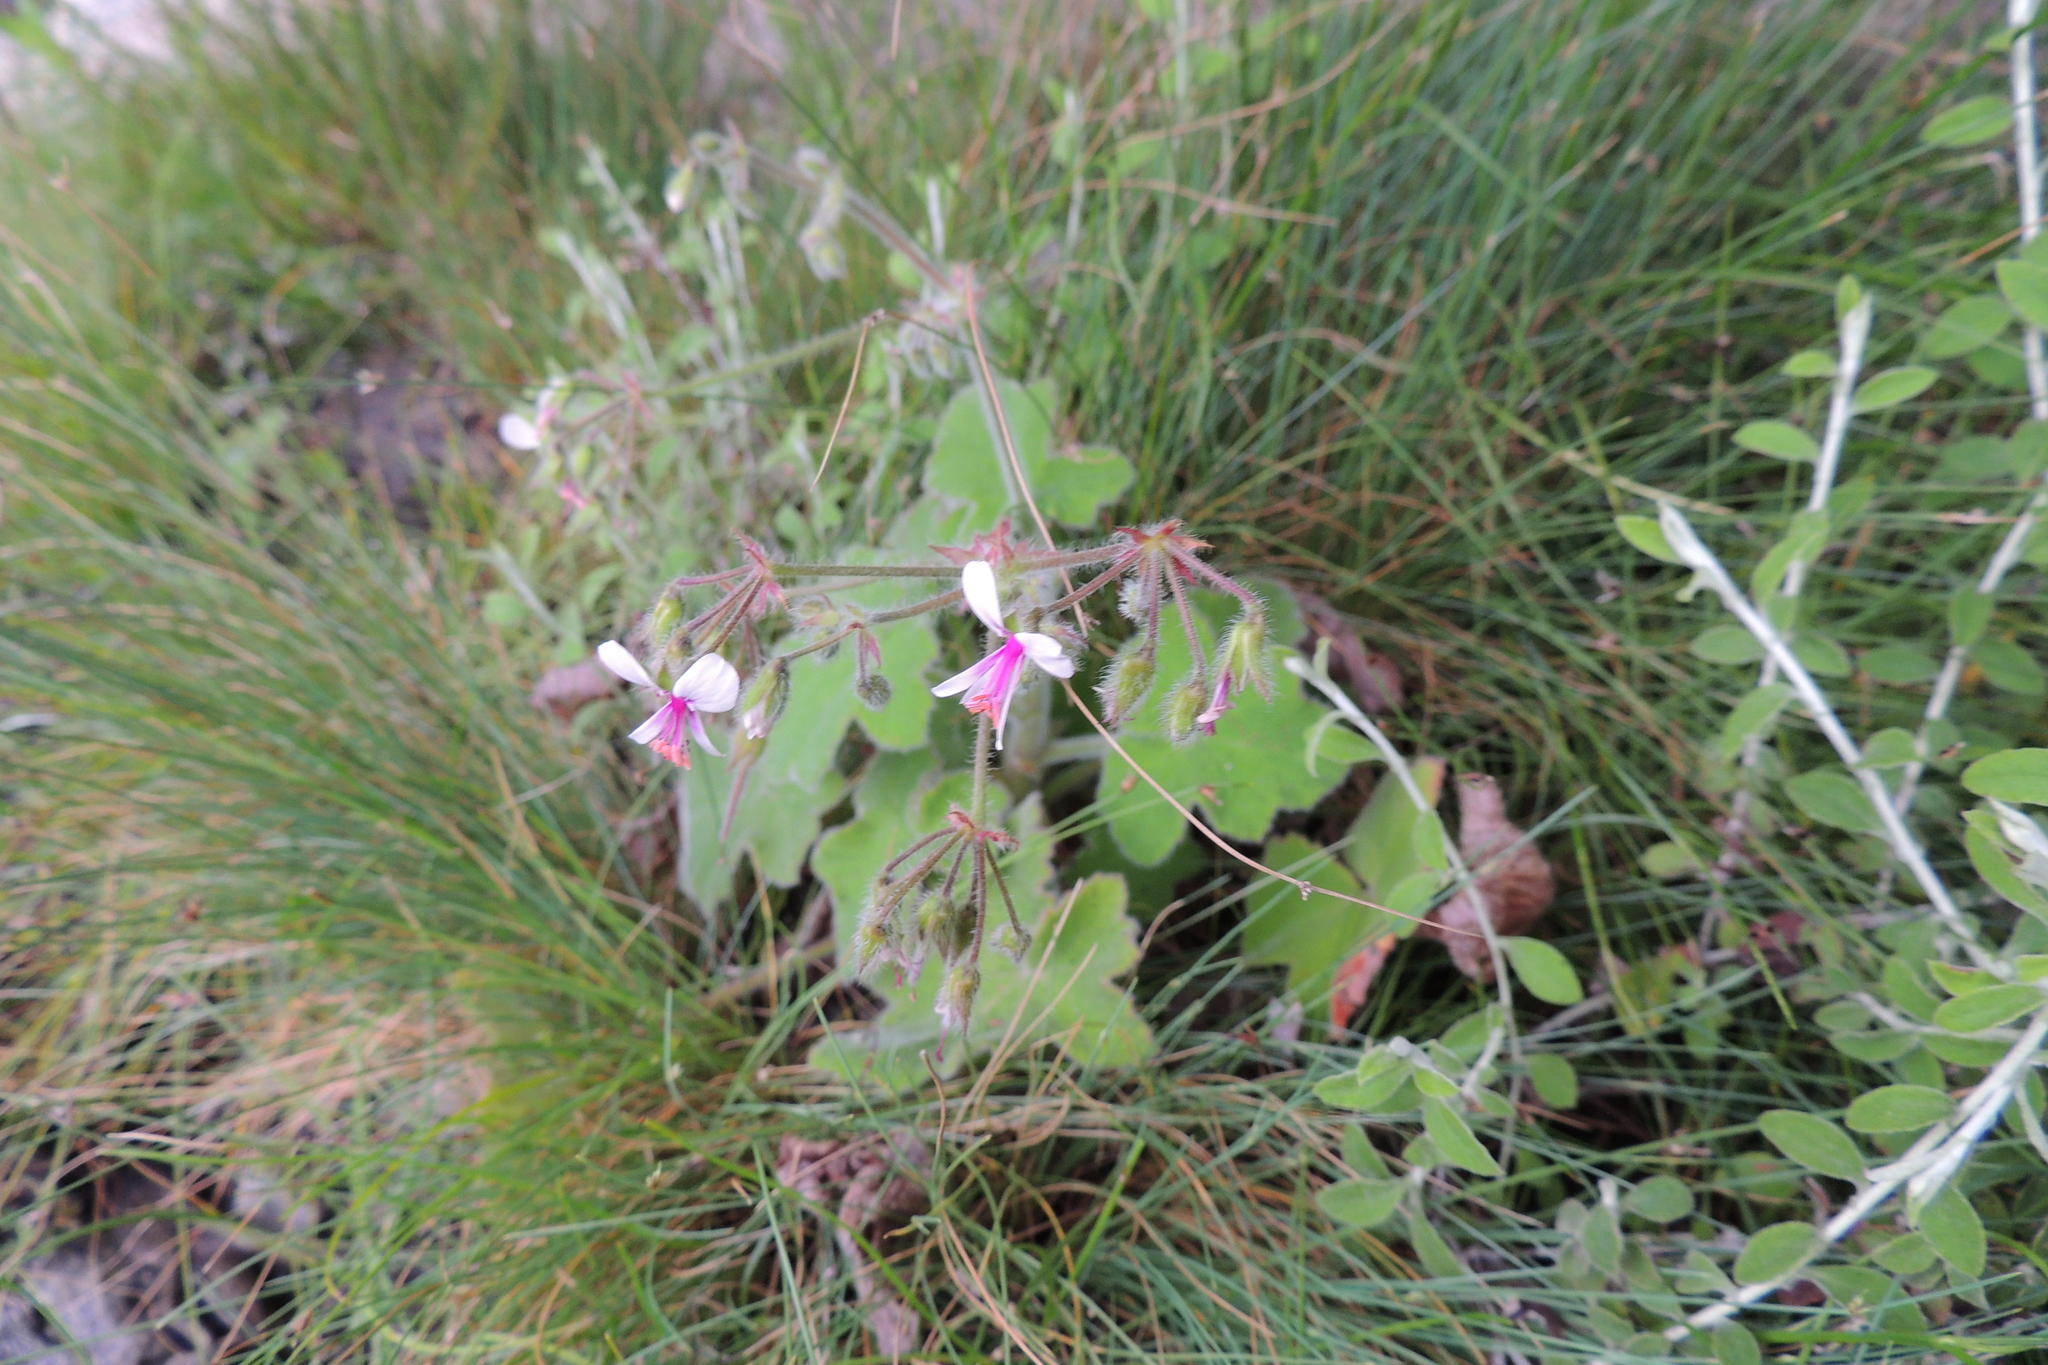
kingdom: Plantae
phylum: Tracheophyta
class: Magnoliopsida
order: Geraniales
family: Geraniaceae
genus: Pelargonium
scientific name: Pelargonium tomentosum
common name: Peppermint-scented geranium
